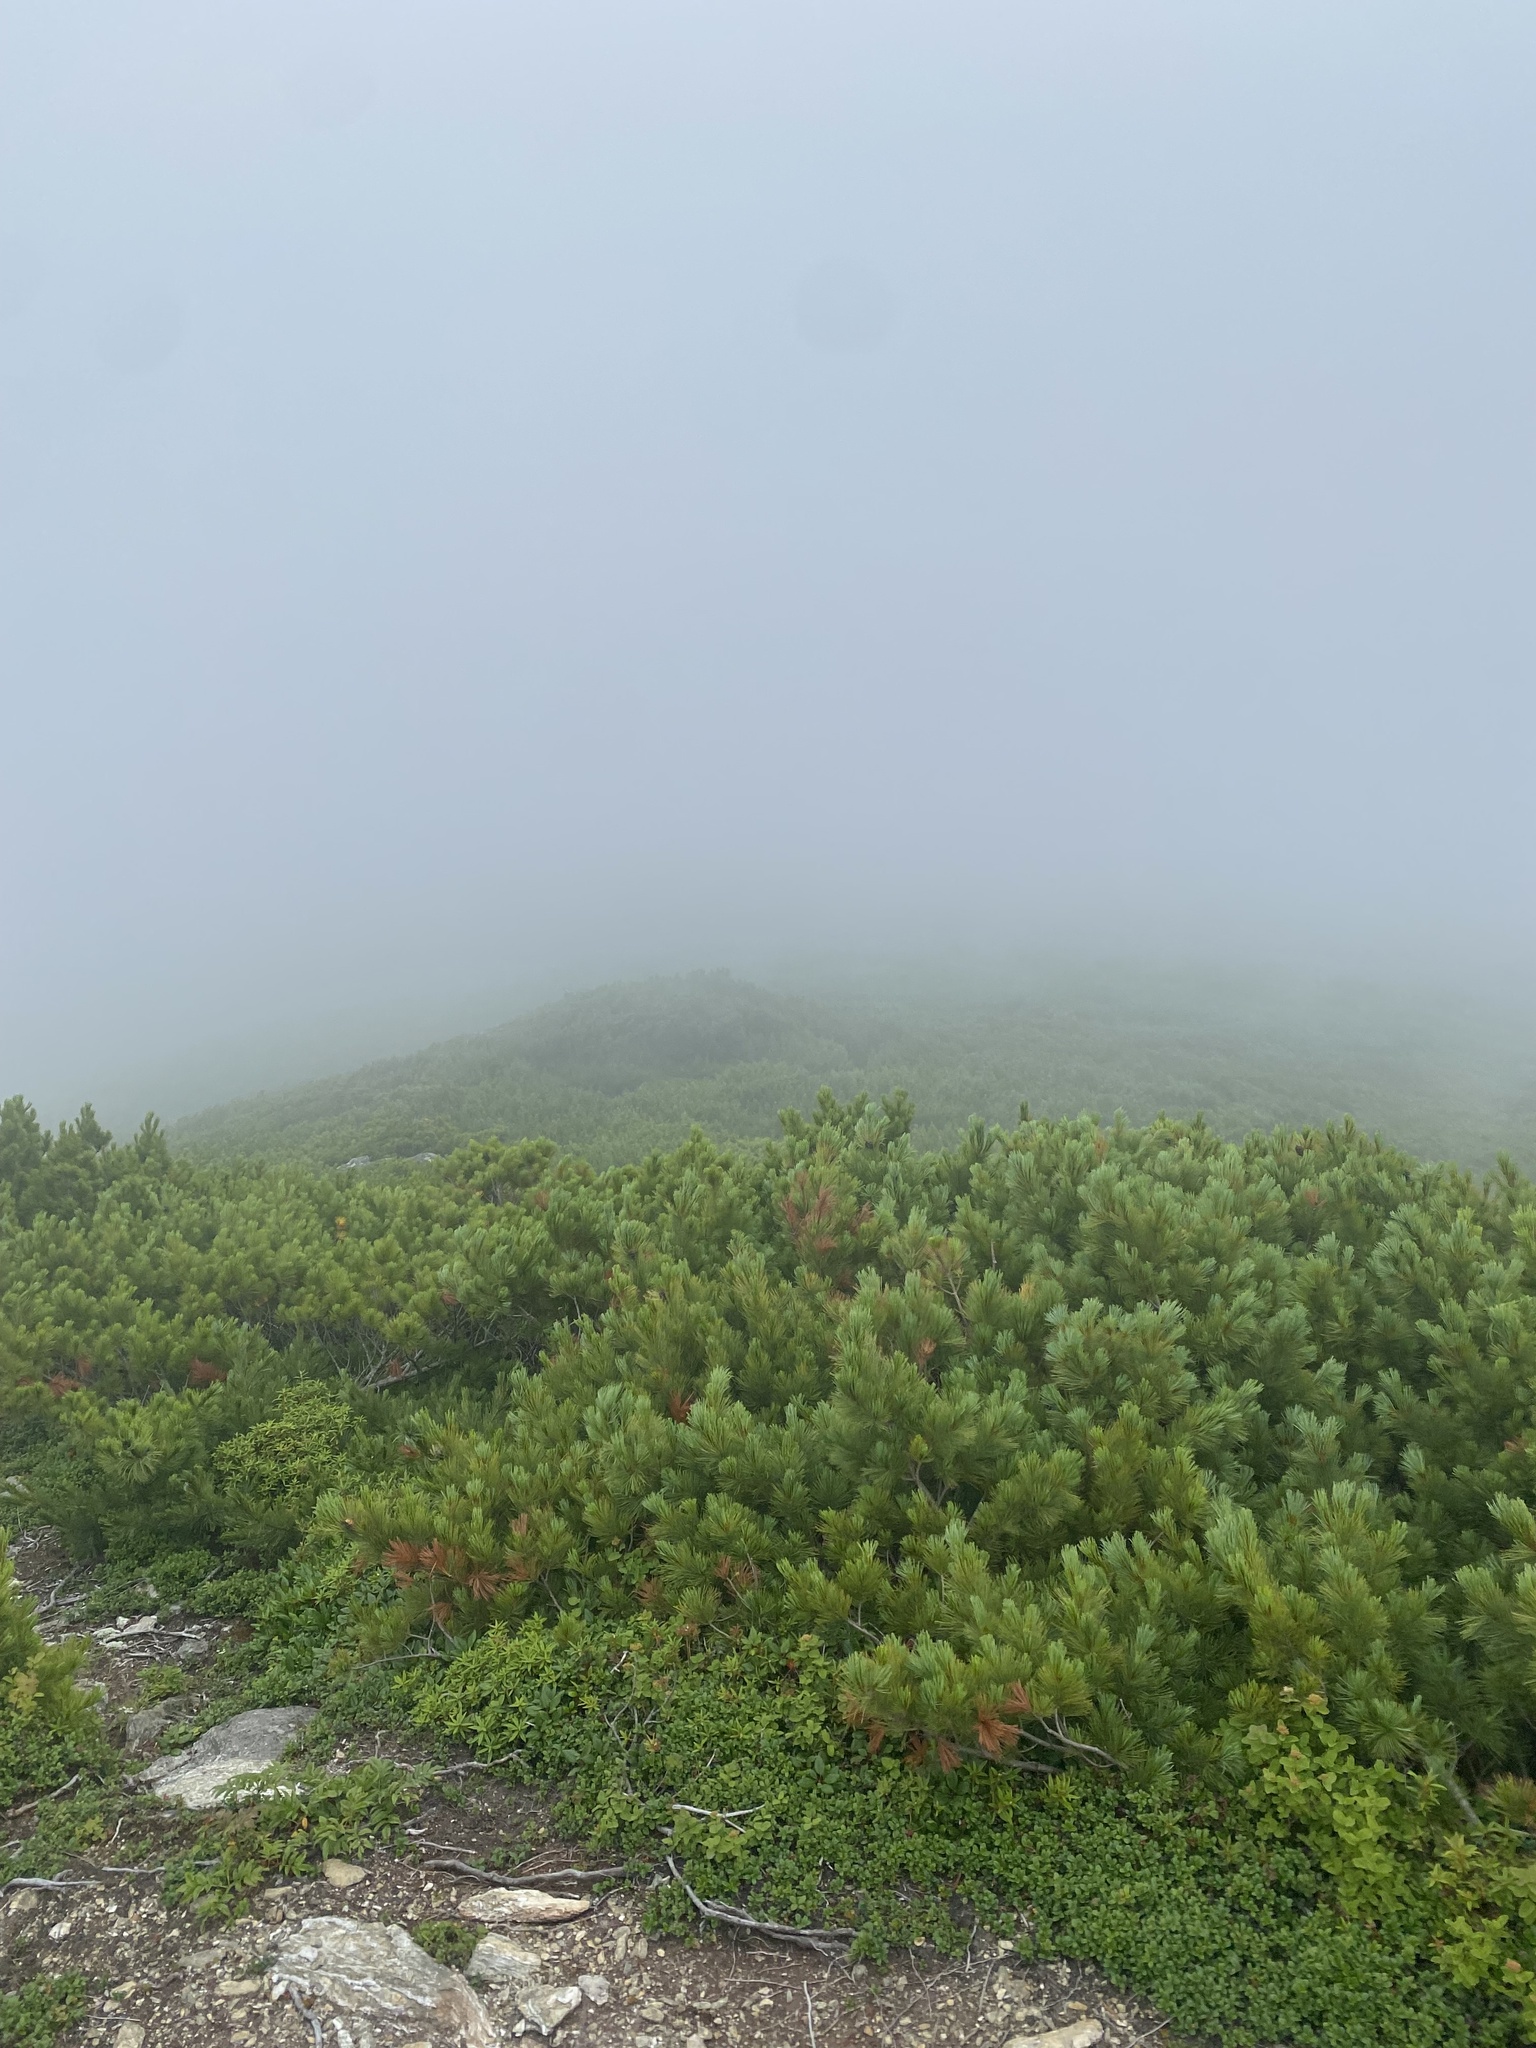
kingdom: Plantae
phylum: Tracheophyta
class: Pinopsida
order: Pinales
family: Pinaceae
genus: Pinus
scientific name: Pinus pumila
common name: Dwarf siberian pine
